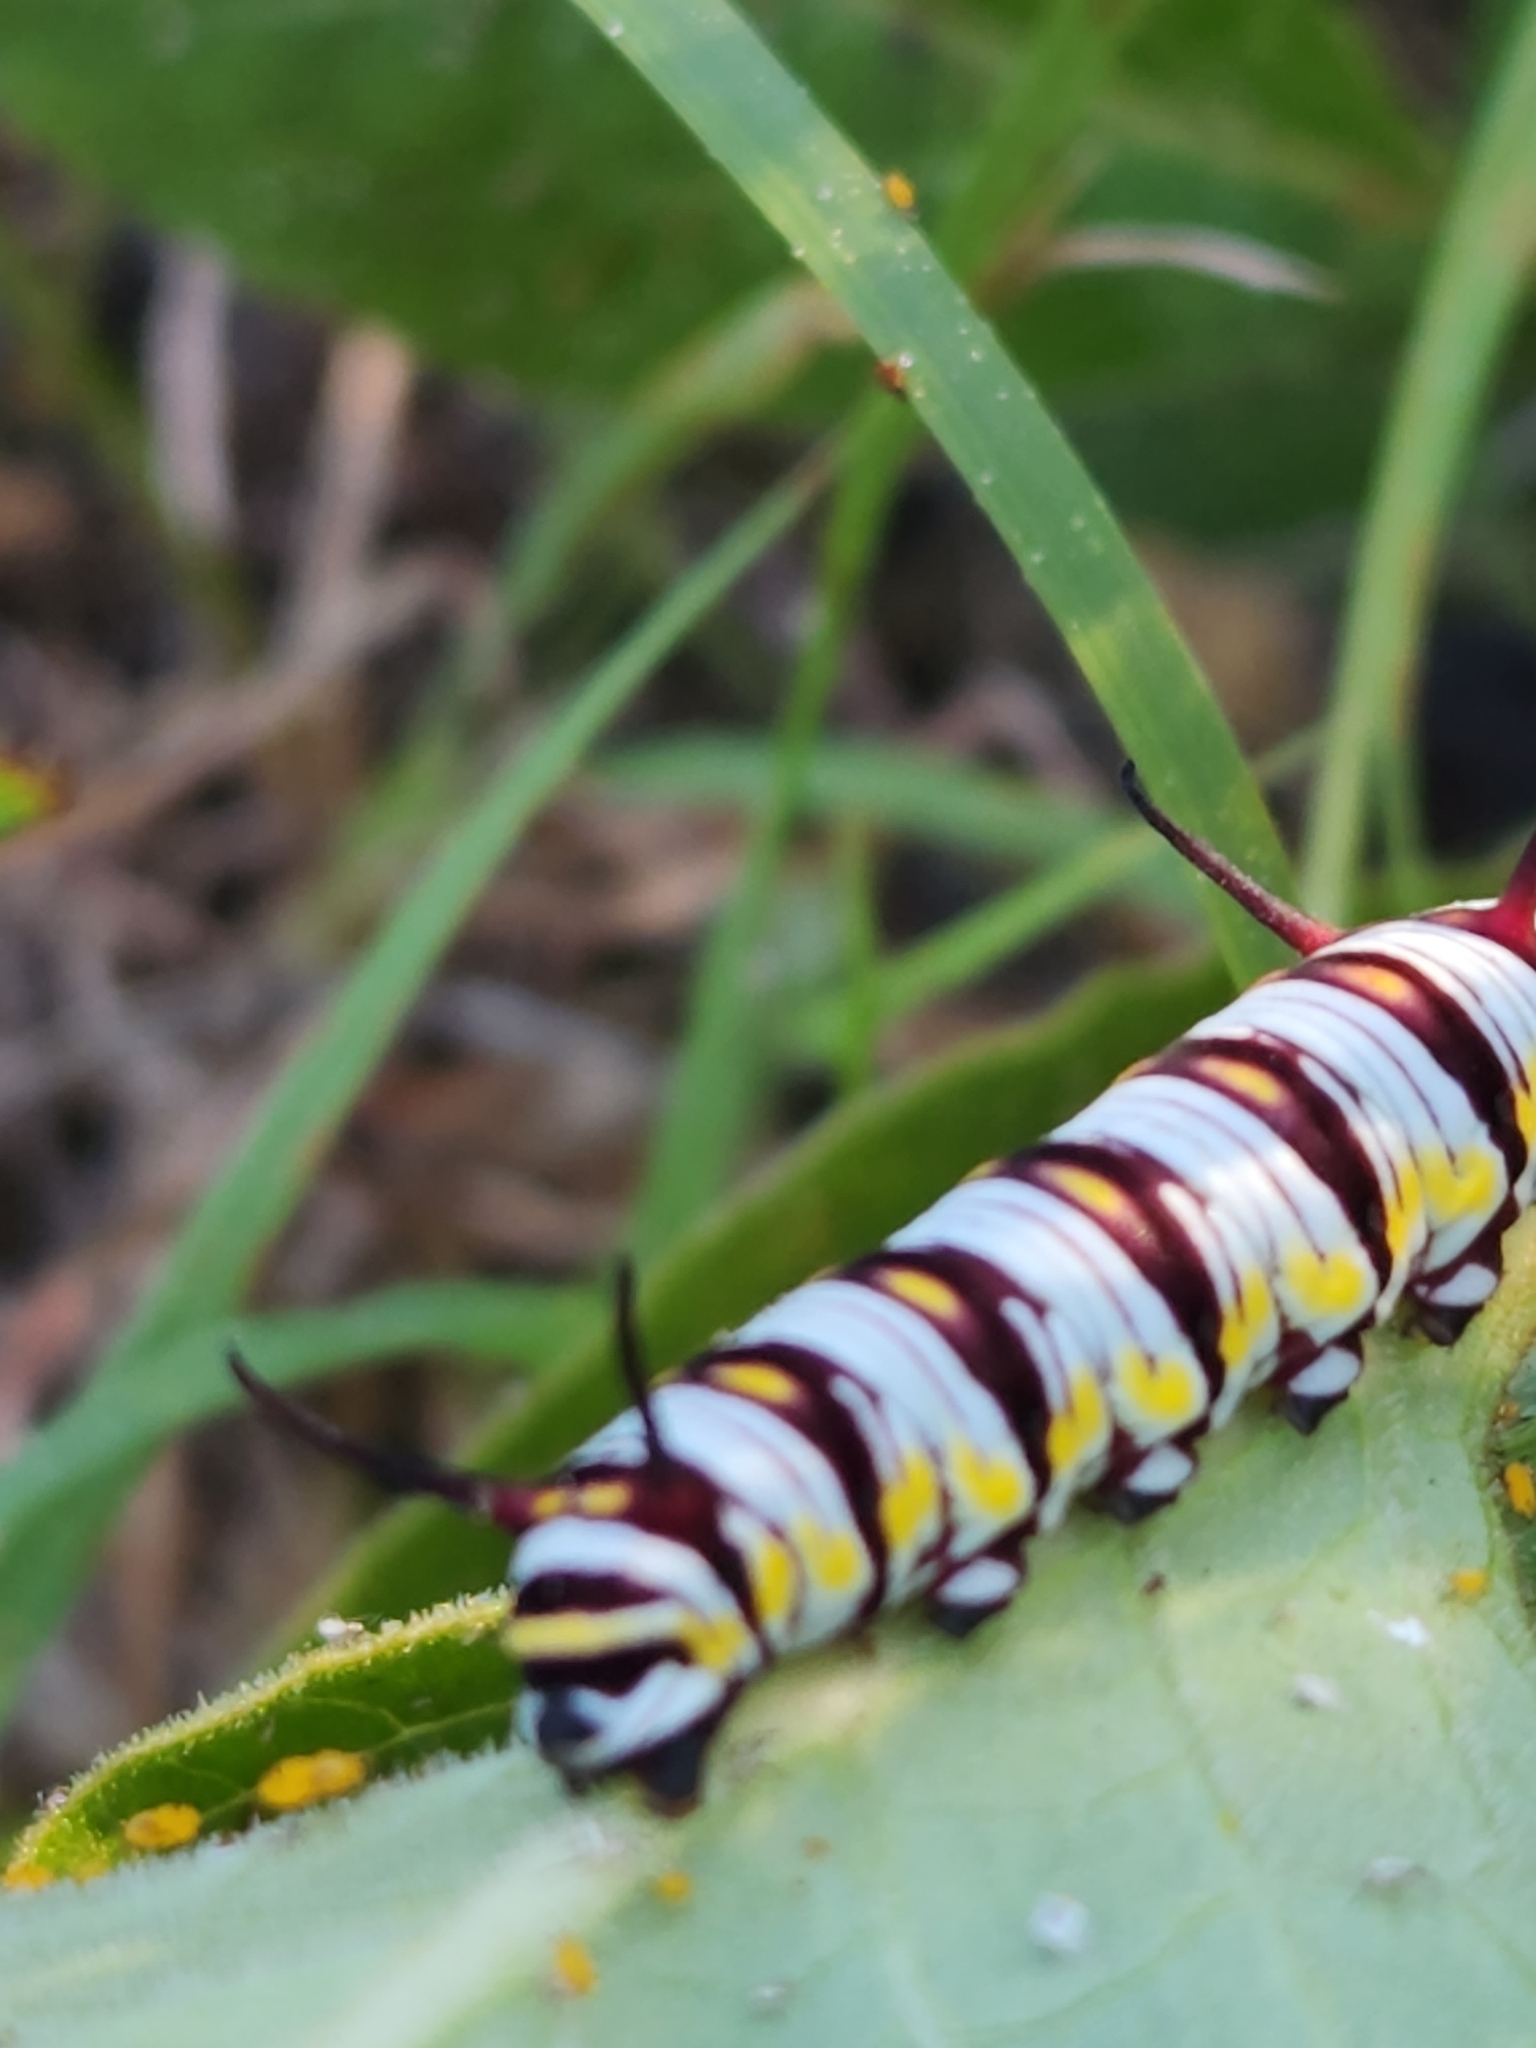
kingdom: Animalia
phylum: Arthropoda
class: Insecta
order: Lepidoptera
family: Nymphalidae
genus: Danaus
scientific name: Danaus gilippus
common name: Queen
